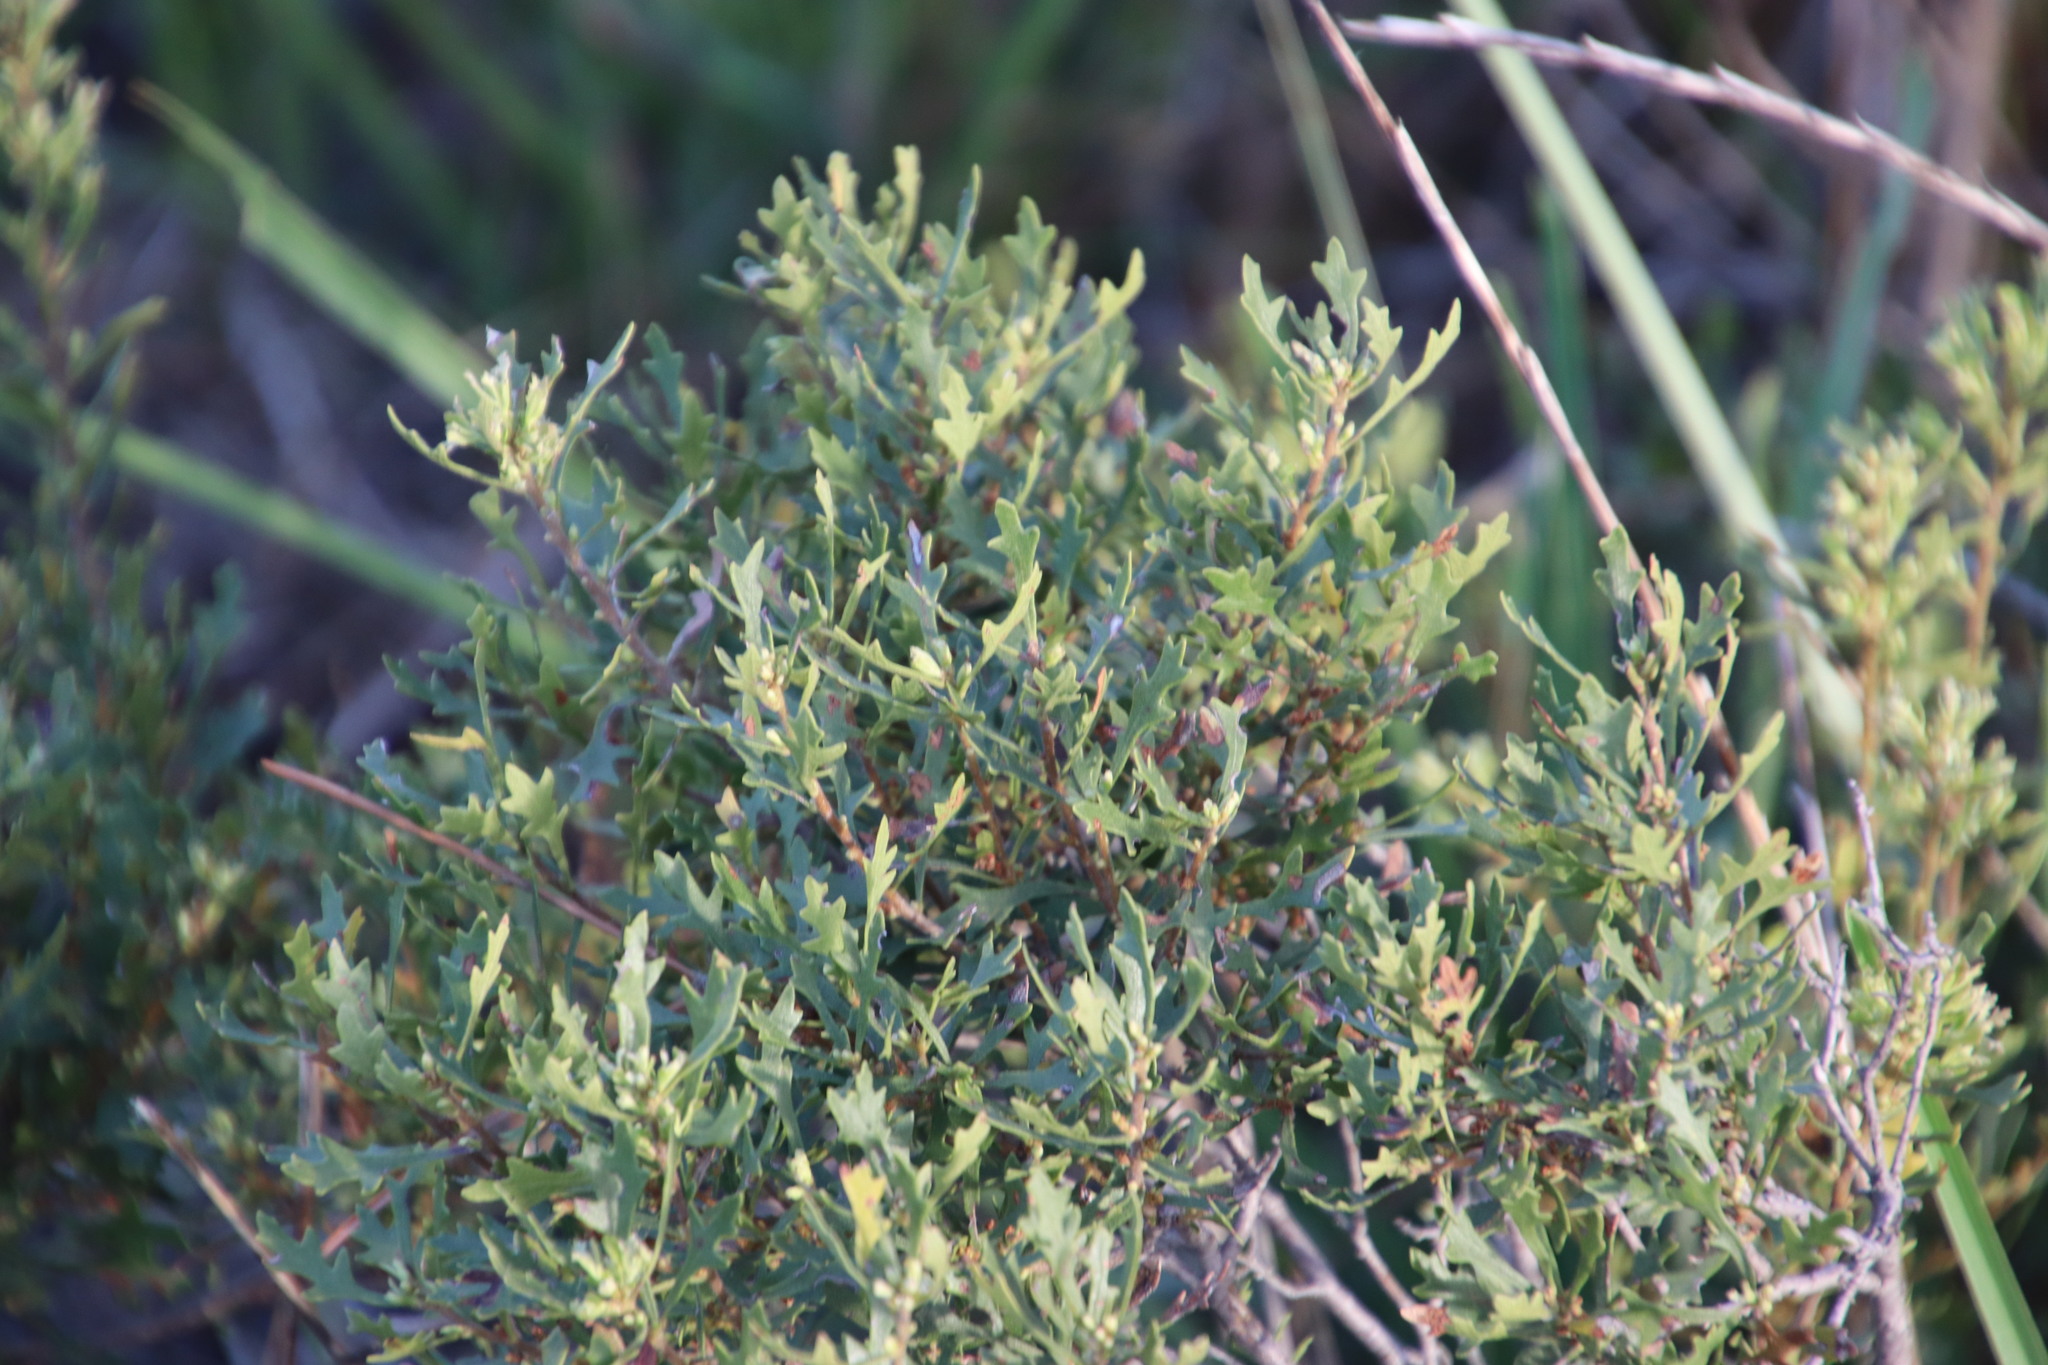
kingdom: Plantae
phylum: Tracheophyta
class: Magnoliopsida
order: Fagales
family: Myricaceae
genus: Morella
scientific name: Morella quercifolia
